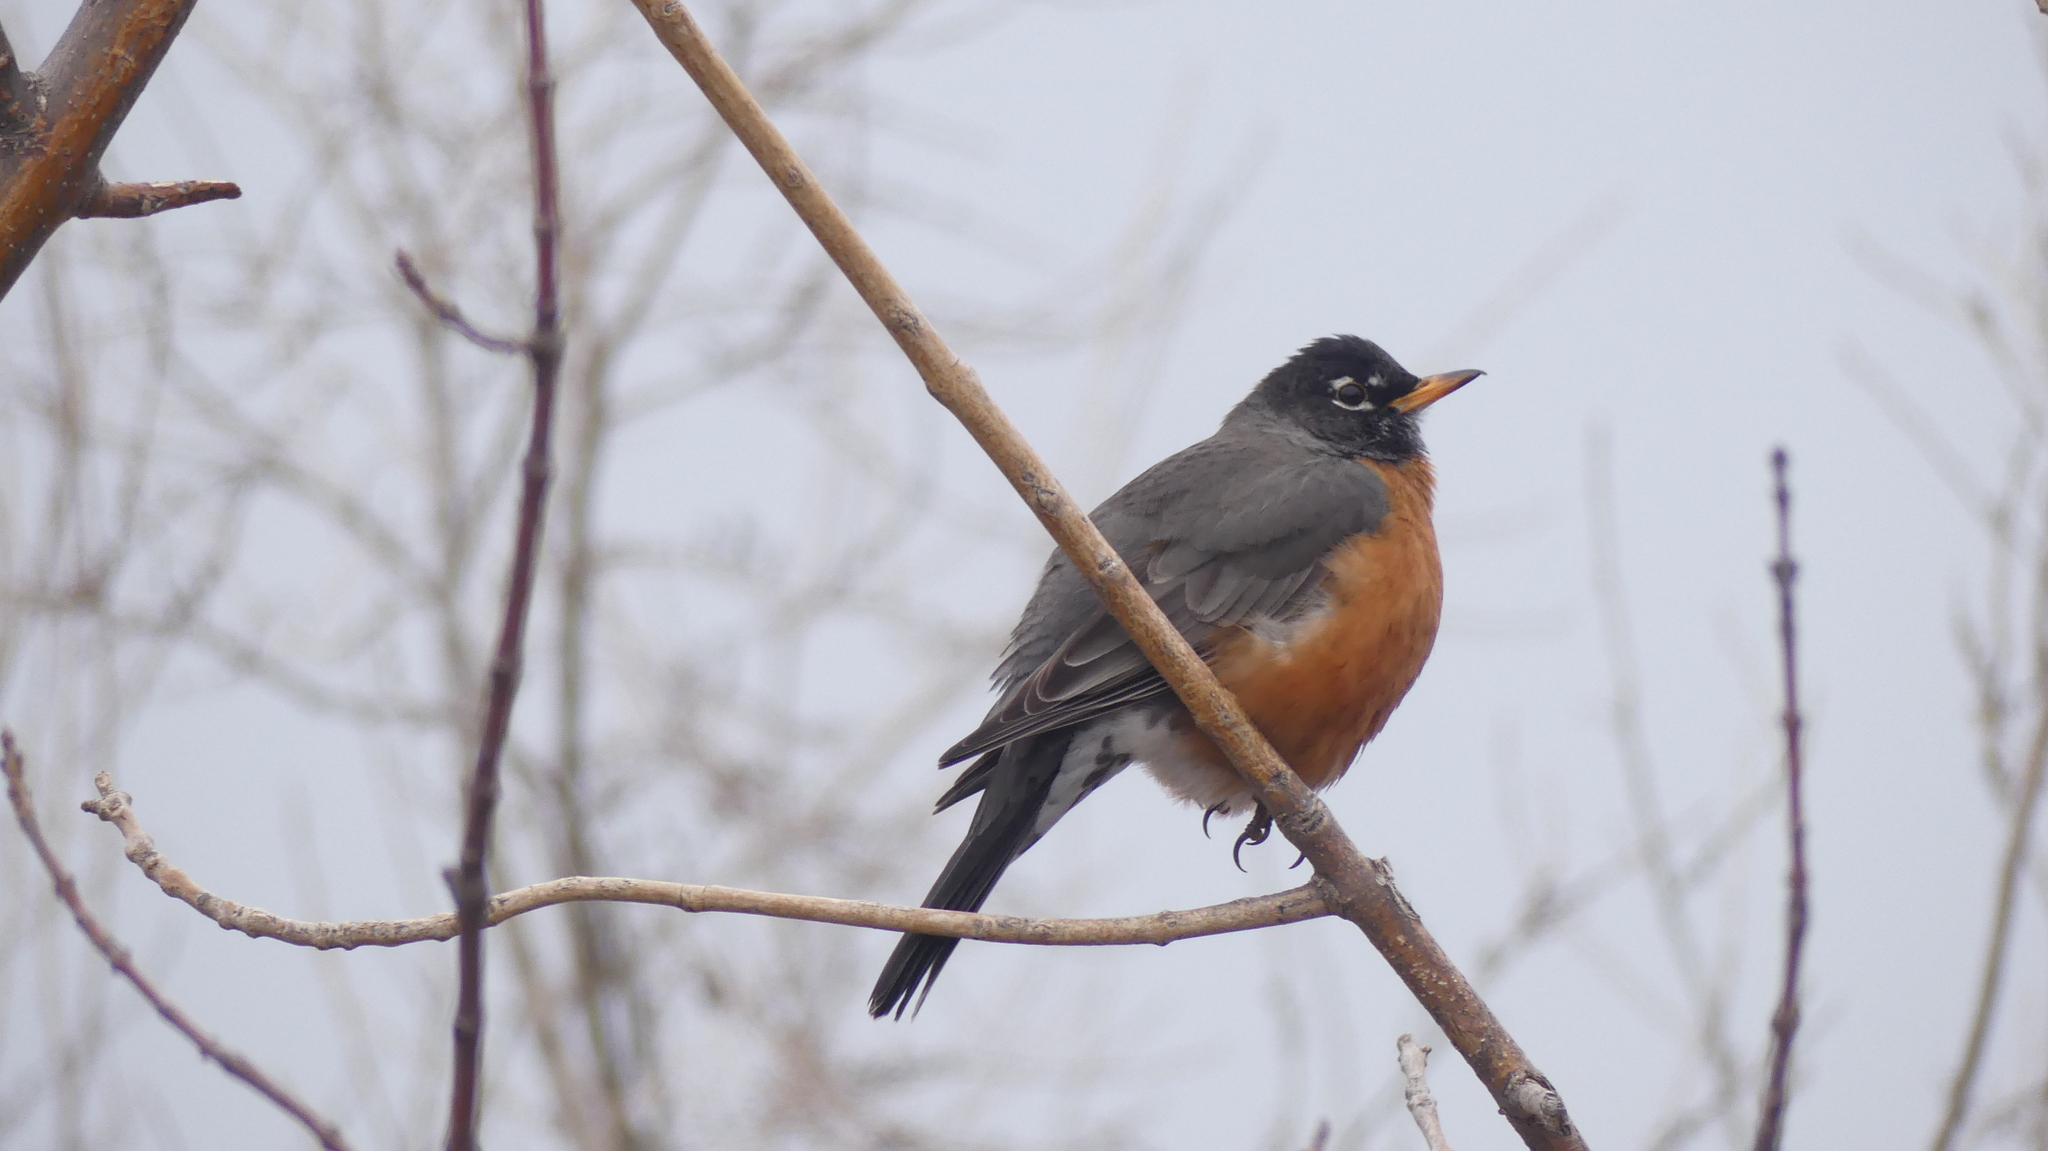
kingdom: Animalia
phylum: Chordata
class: Aves
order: Passeriformes
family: Turdidae
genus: Turdus
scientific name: Turdus migratorius
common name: American robin
